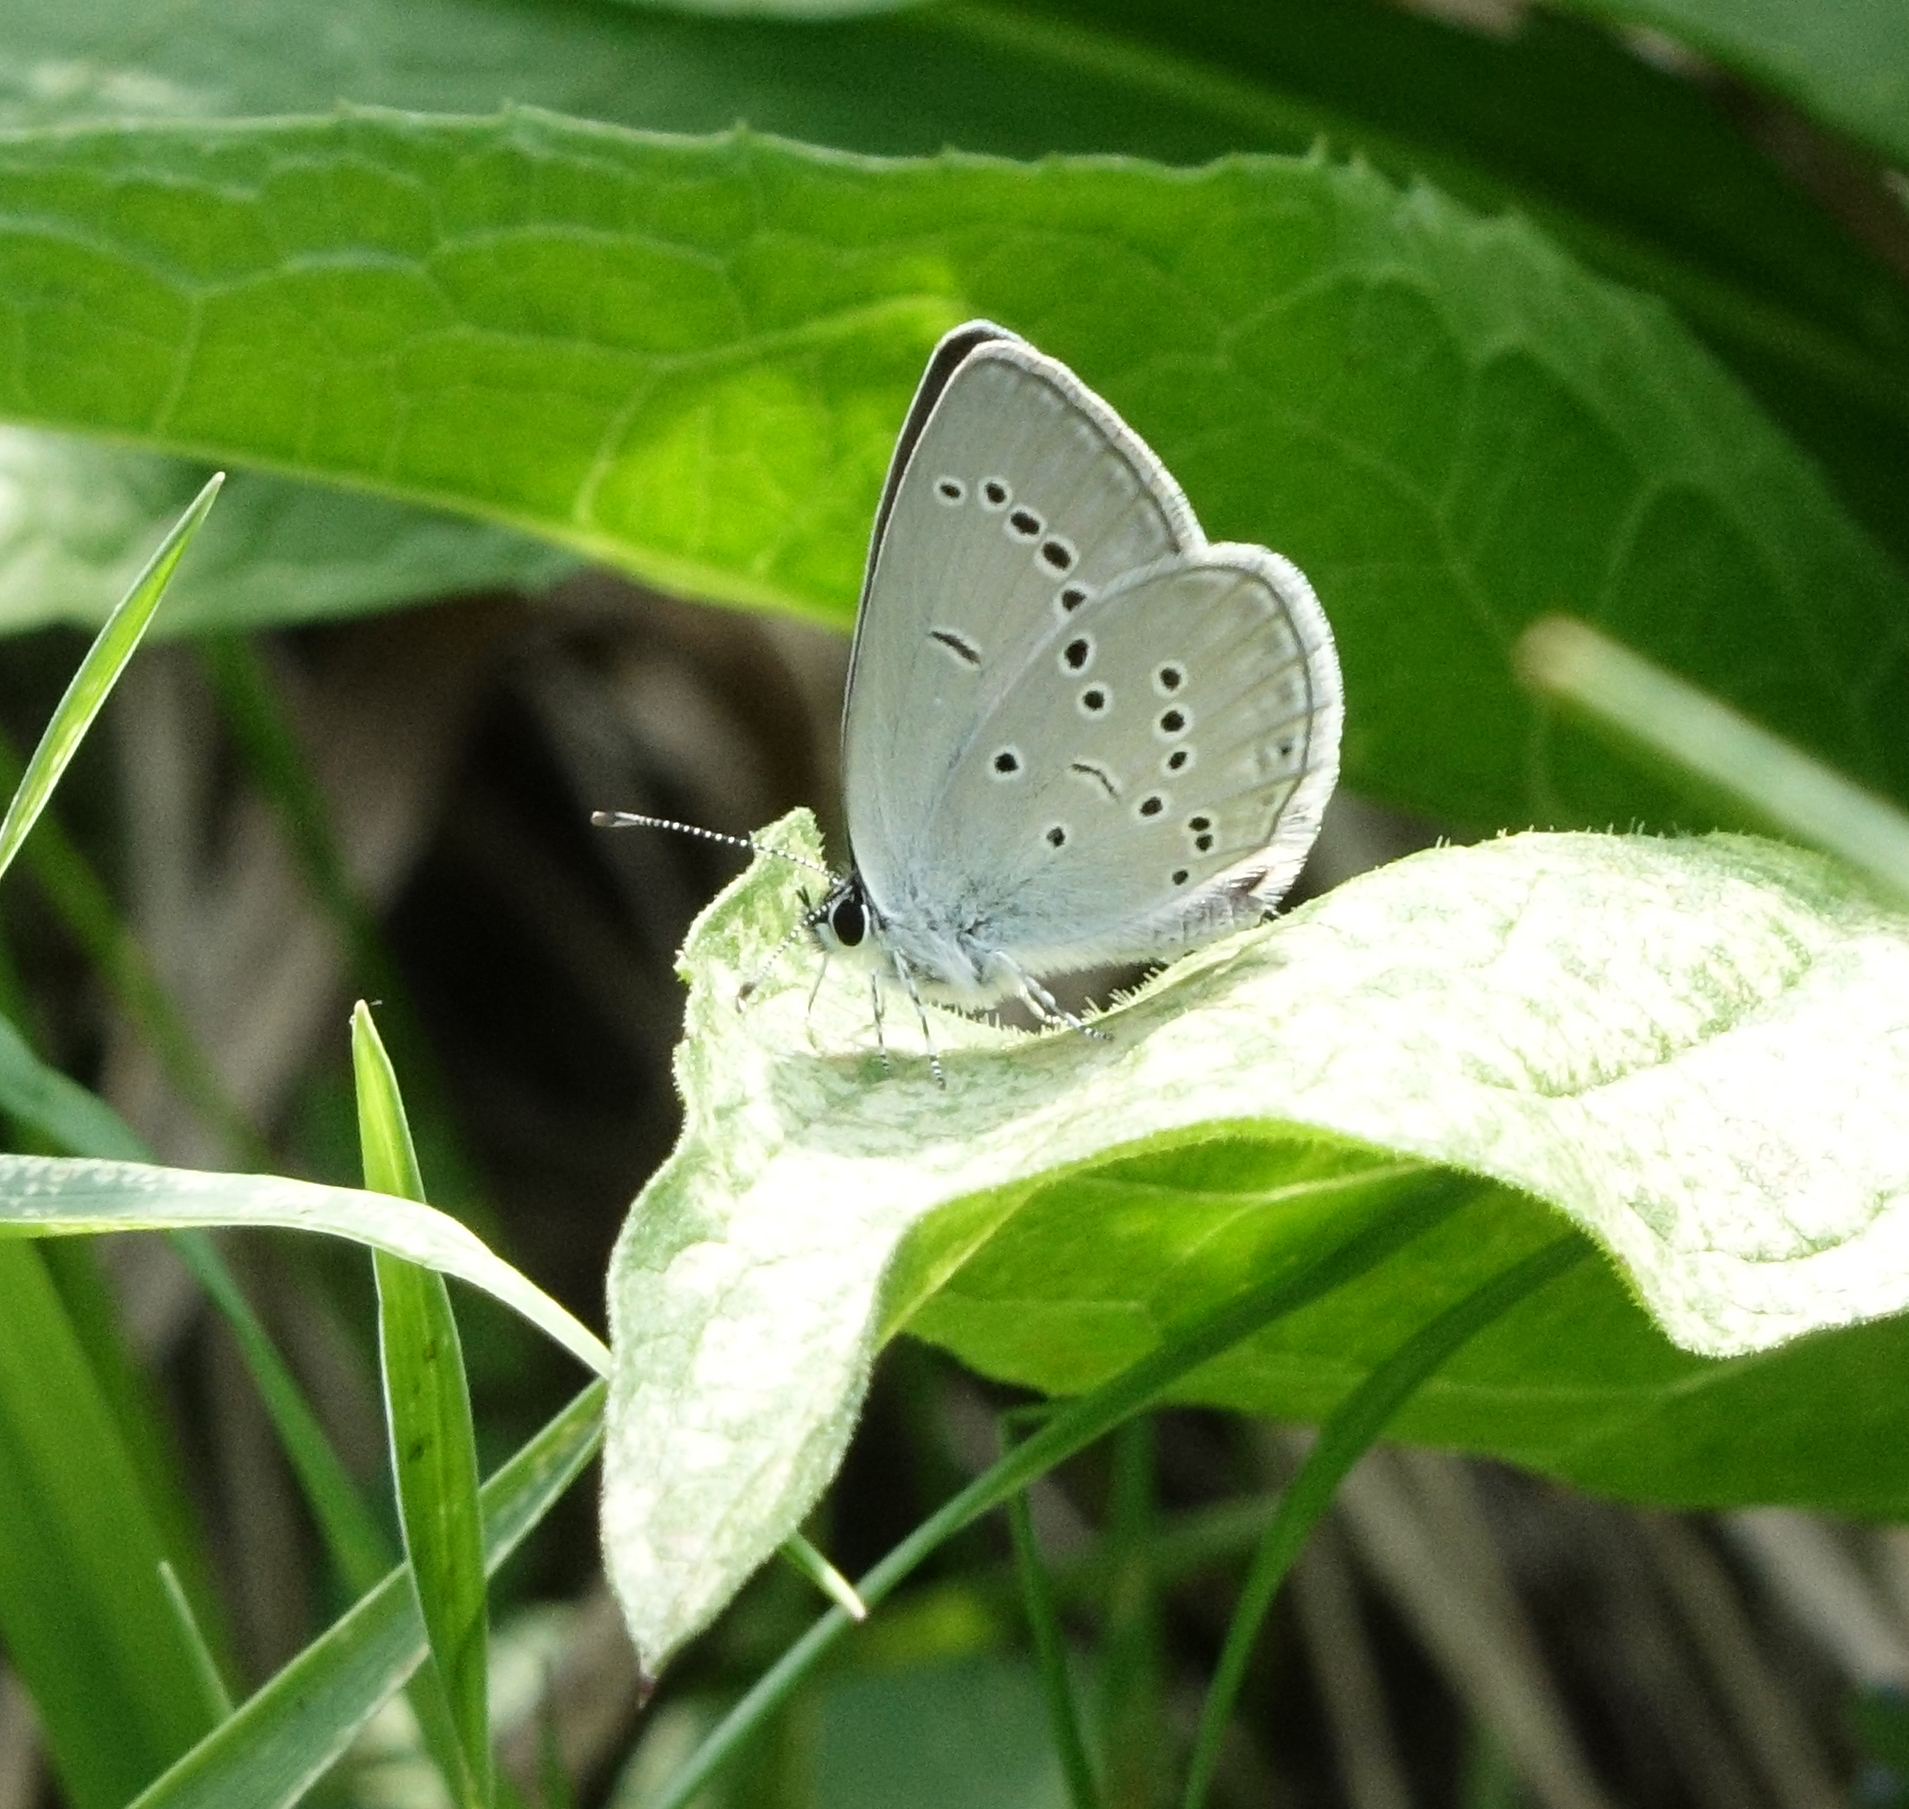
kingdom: Animalia
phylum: Arthropoda
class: Insecta
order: Lepidoptera
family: Lycaenidae
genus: Cupido
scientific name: Cupido minimus
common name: Small blue
